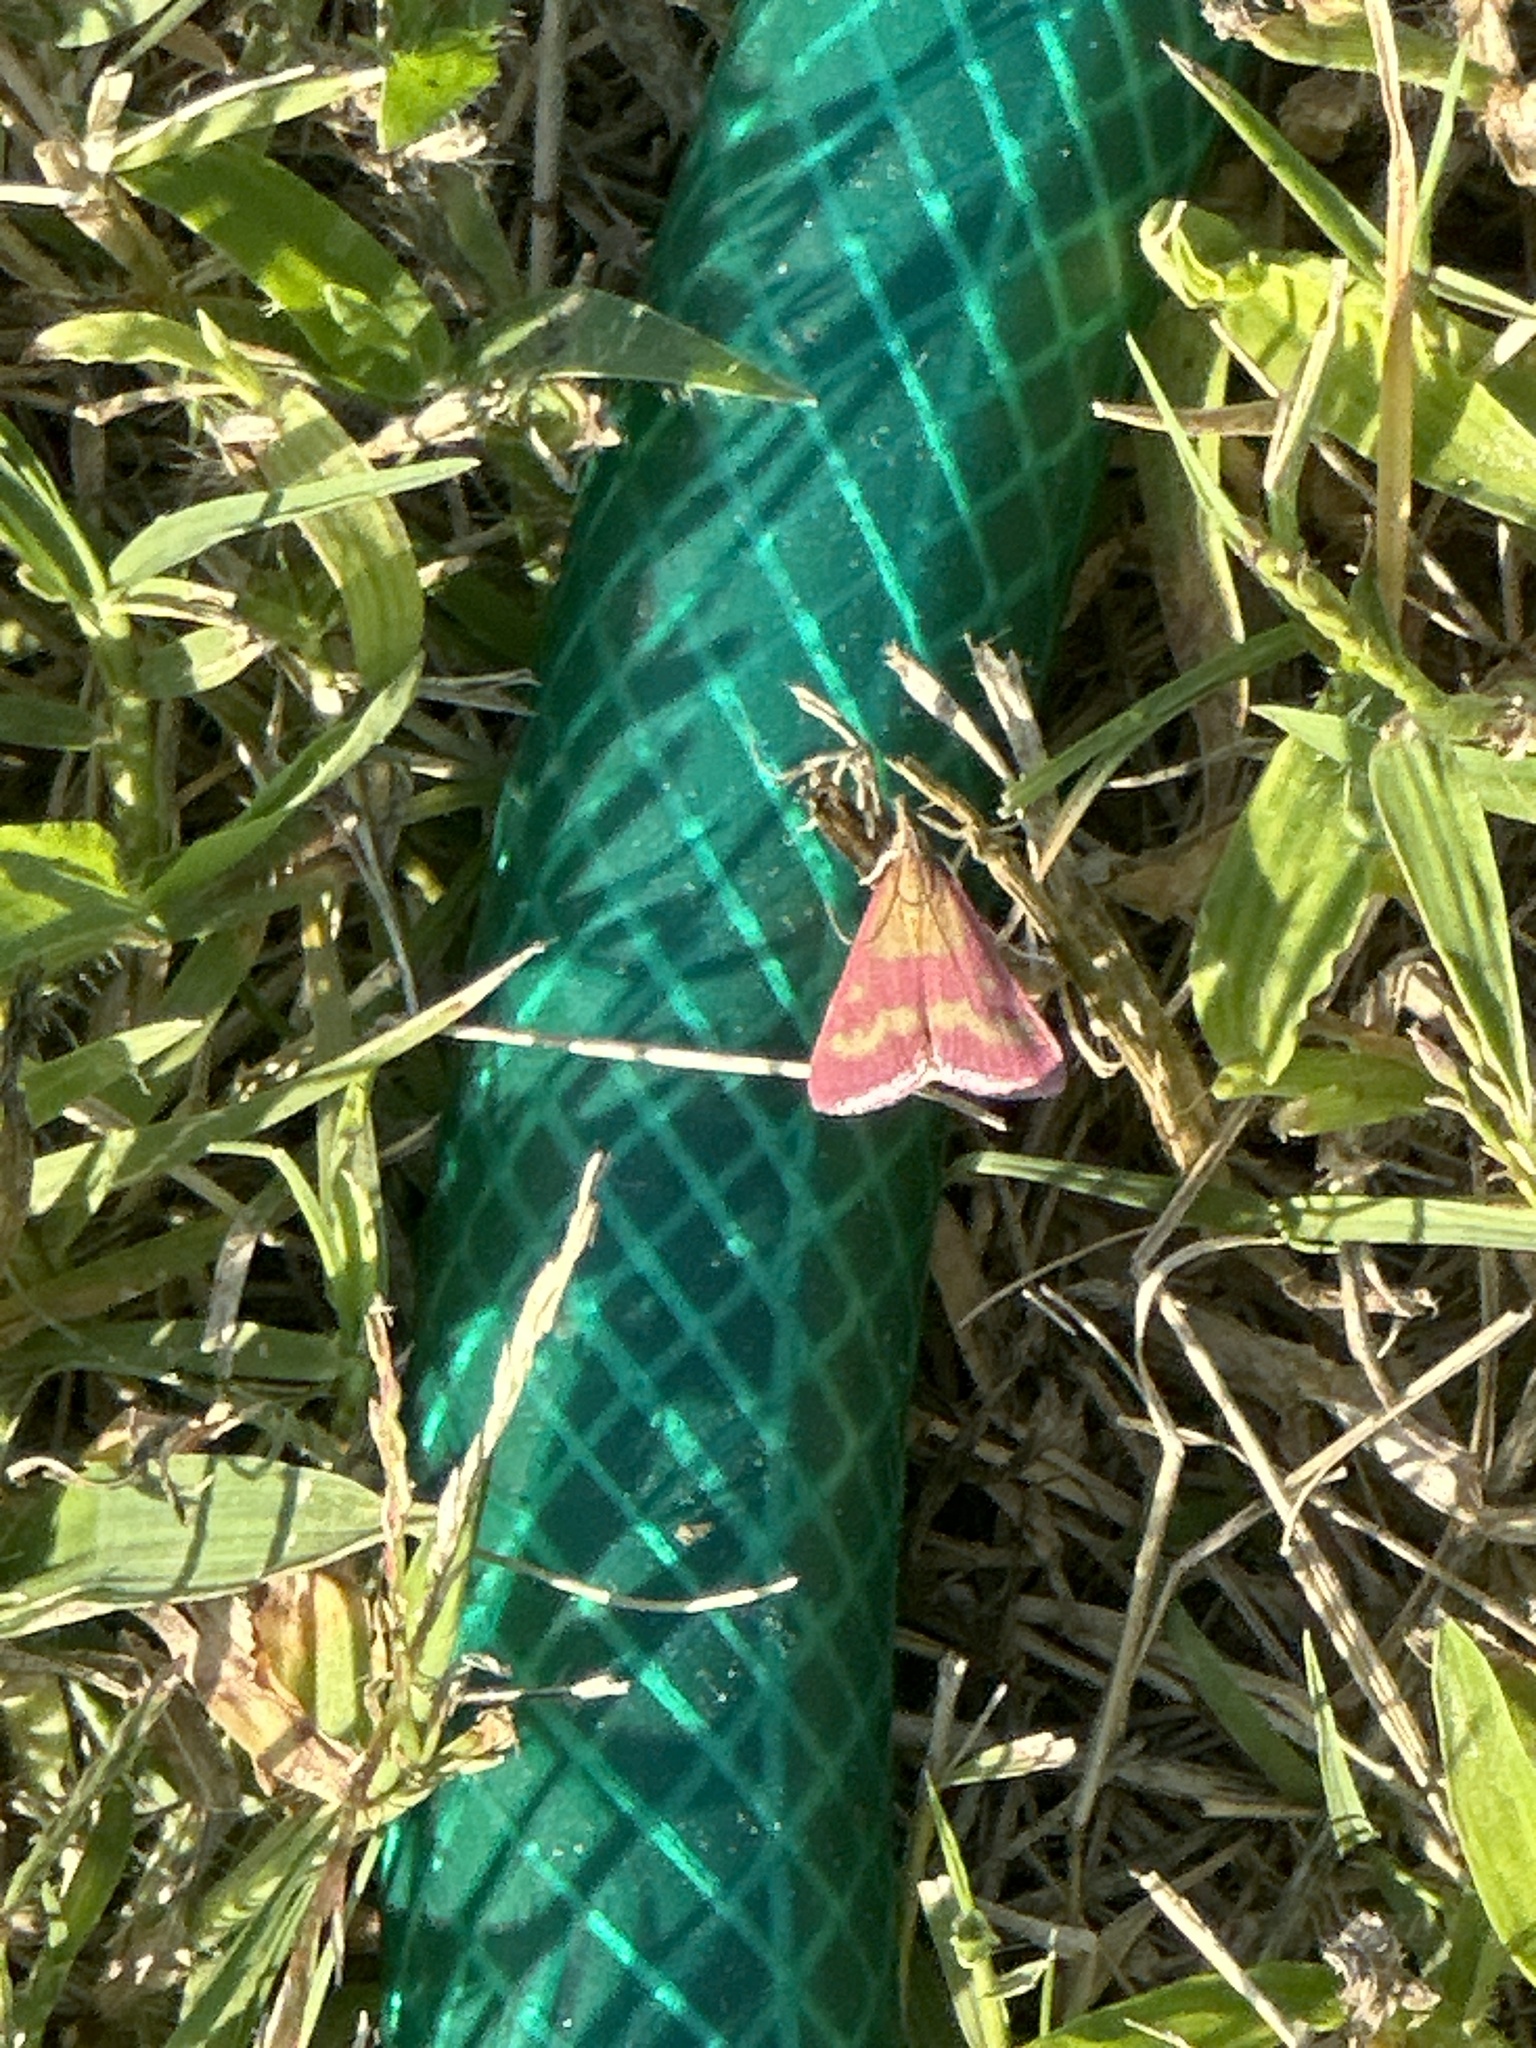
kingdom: Animalia
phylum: Arthropoda
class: Insecta
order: Lepidoptera
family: Crambidae
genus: Pyrausta
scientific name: Pyrausta laticlavia
